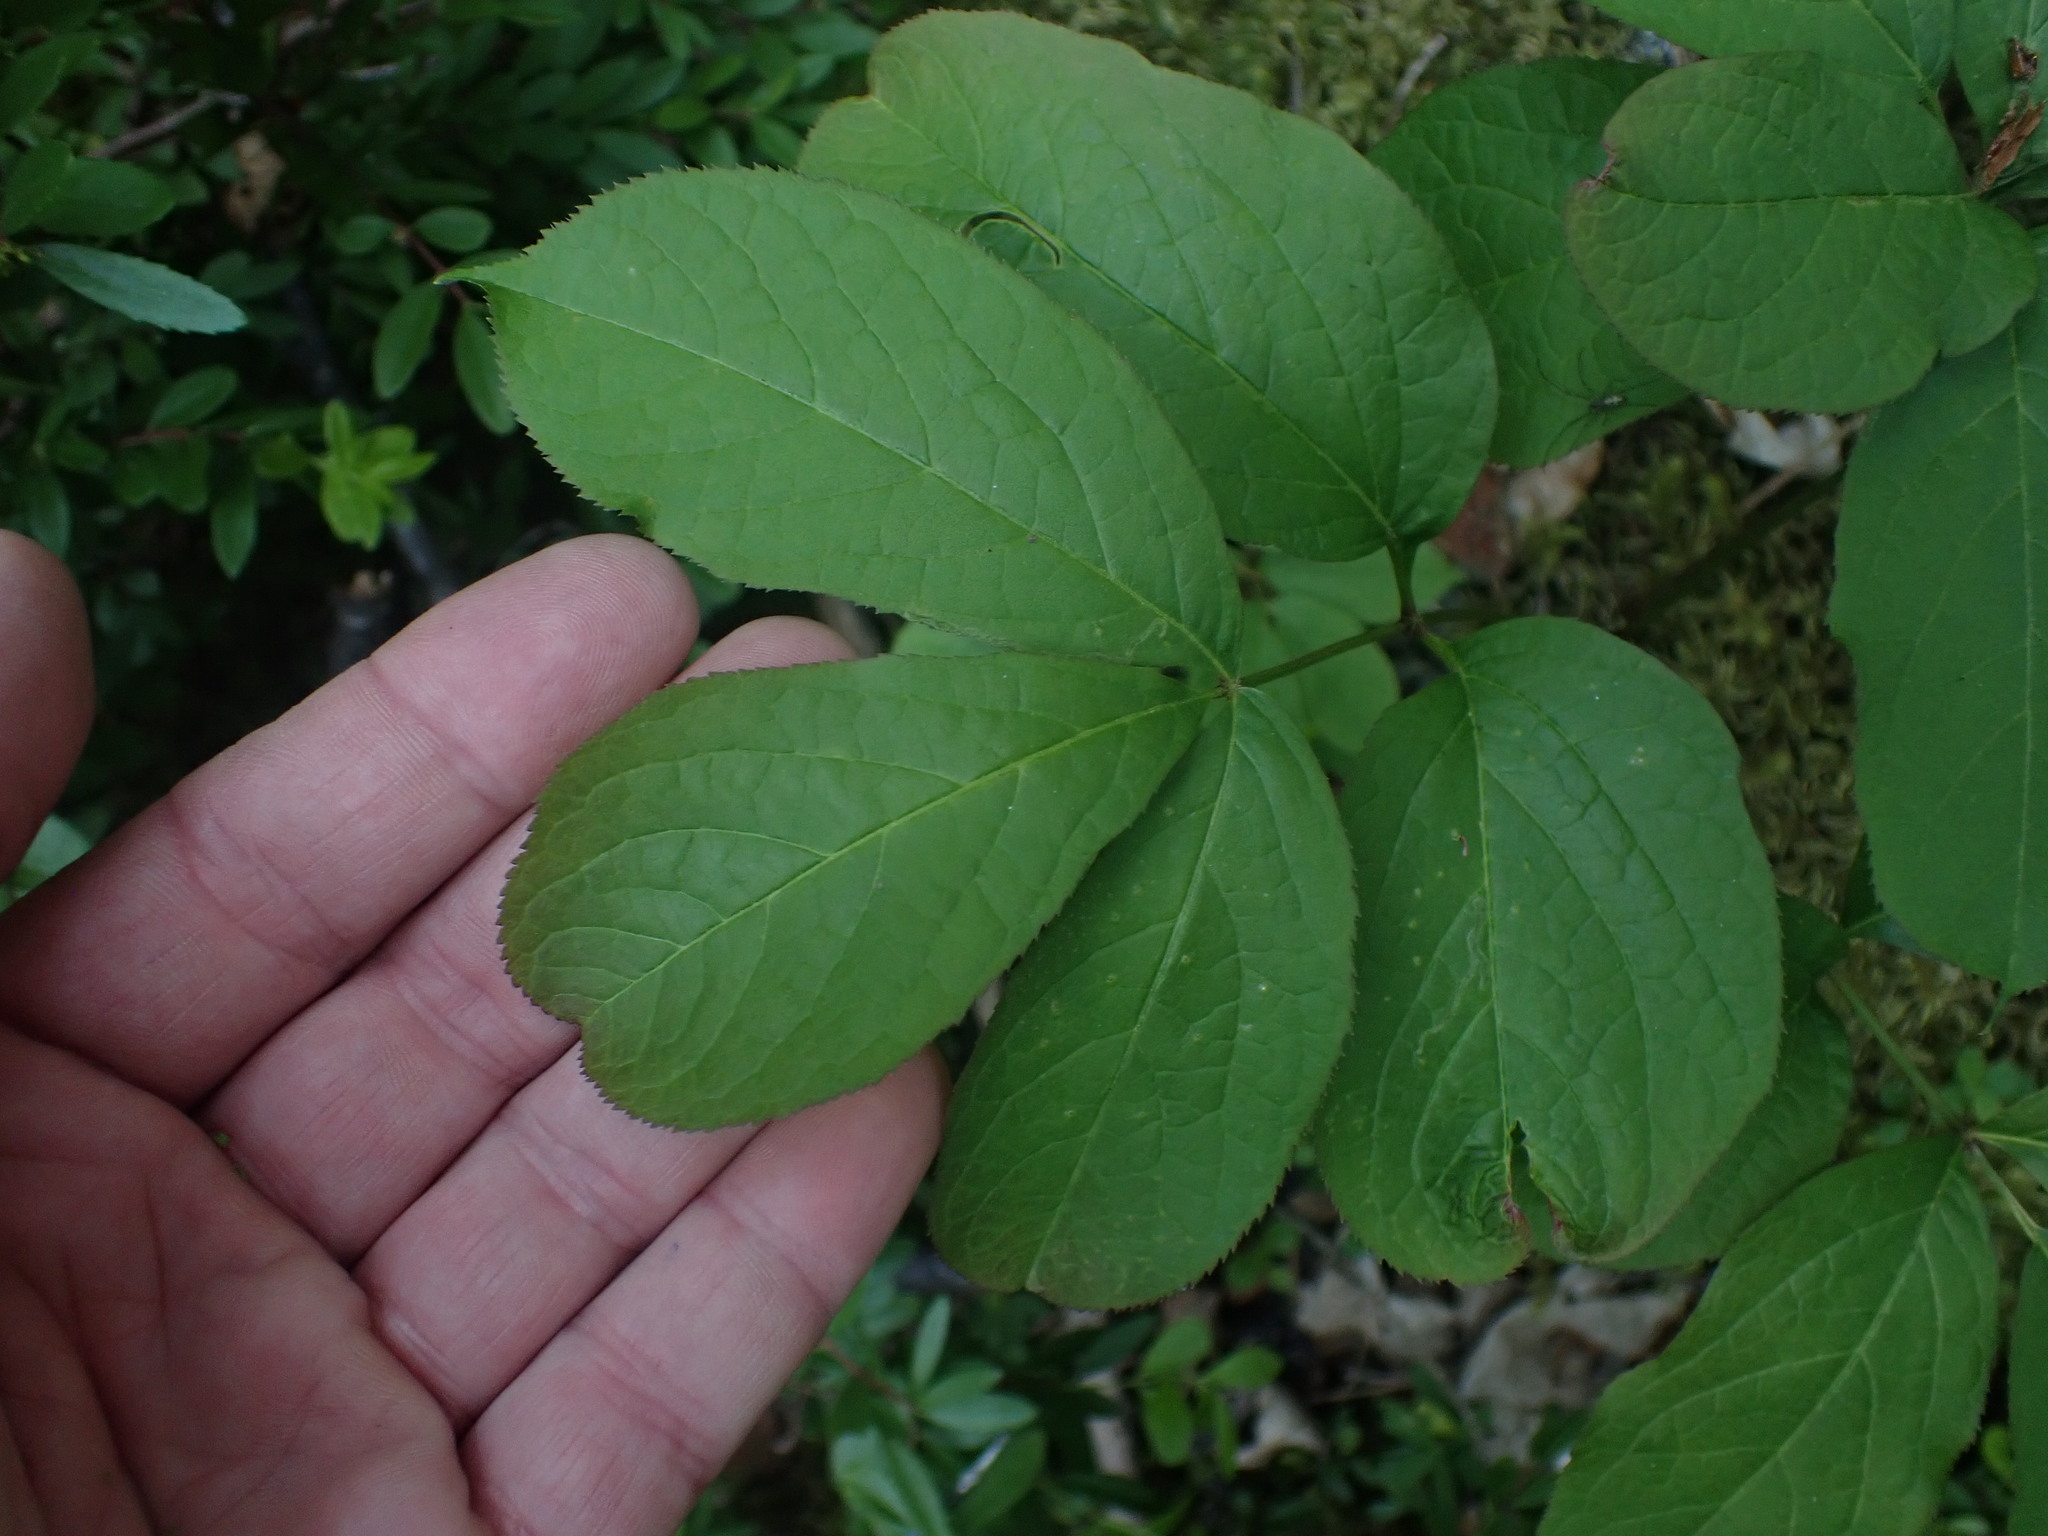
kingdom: Plantae
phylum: Tracheophyta
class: Magnoliopsida
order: Apiales
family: Araliaceae
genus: Aralia
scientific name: Aralia nudicaulis
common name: Wild sarsaparilla
